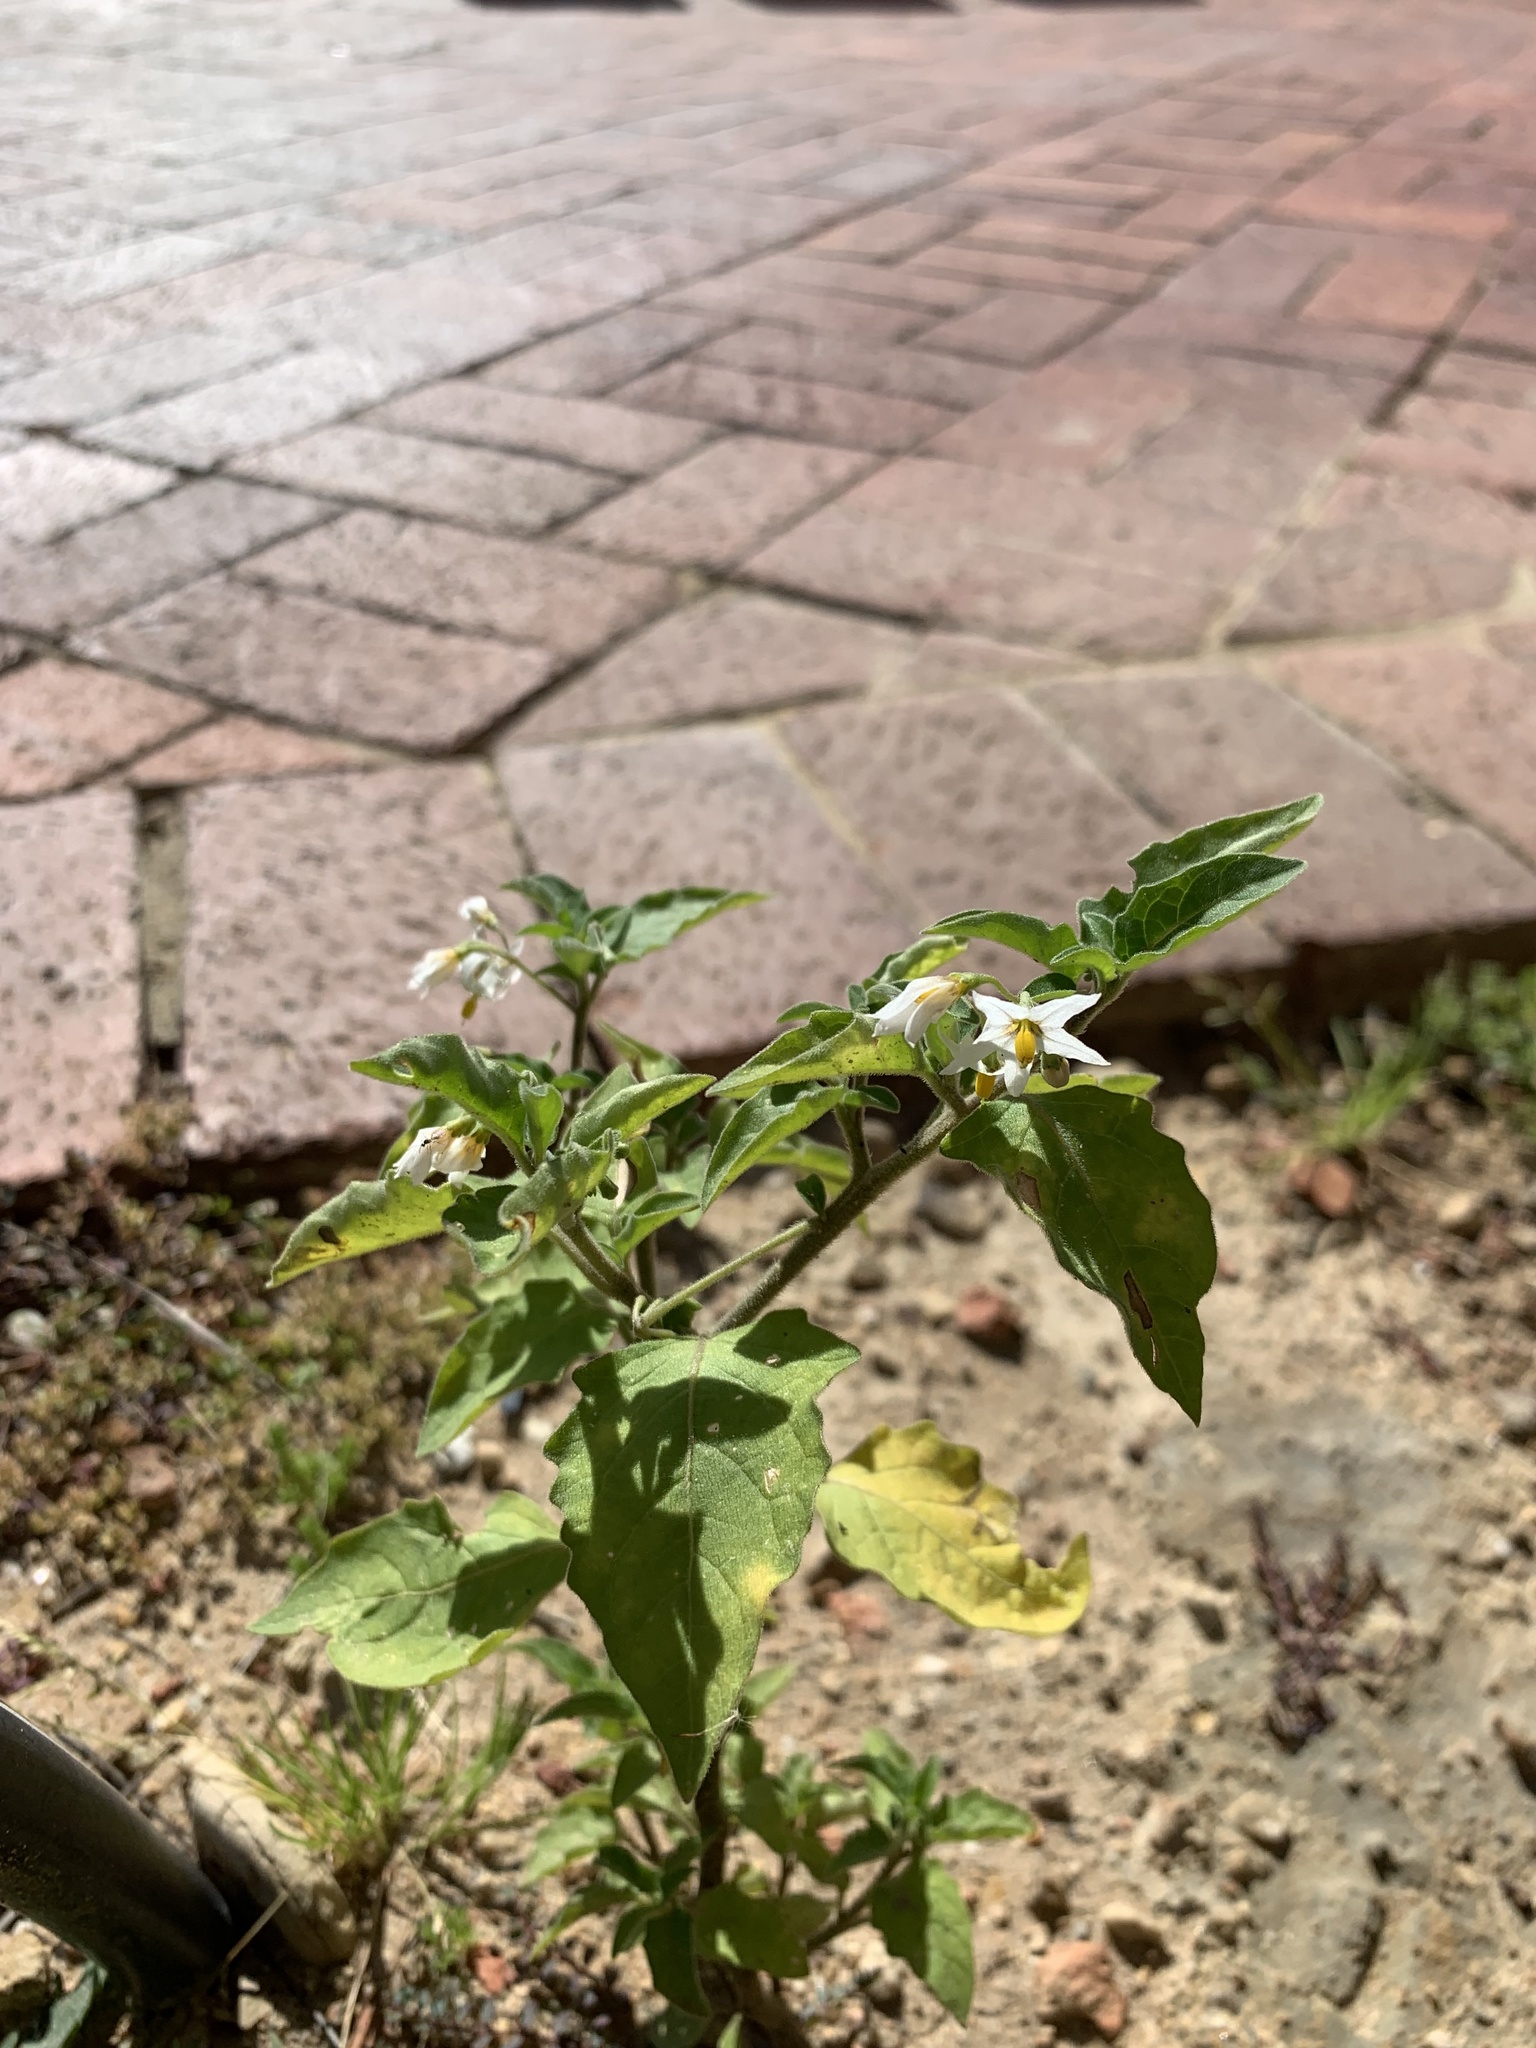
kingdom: Plantae
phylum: Tracheophyta
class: Magnoliopsida
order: Solanales
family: Solanaceae
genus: Solanum
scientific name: Solanum nigrum
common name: Black nightshade
